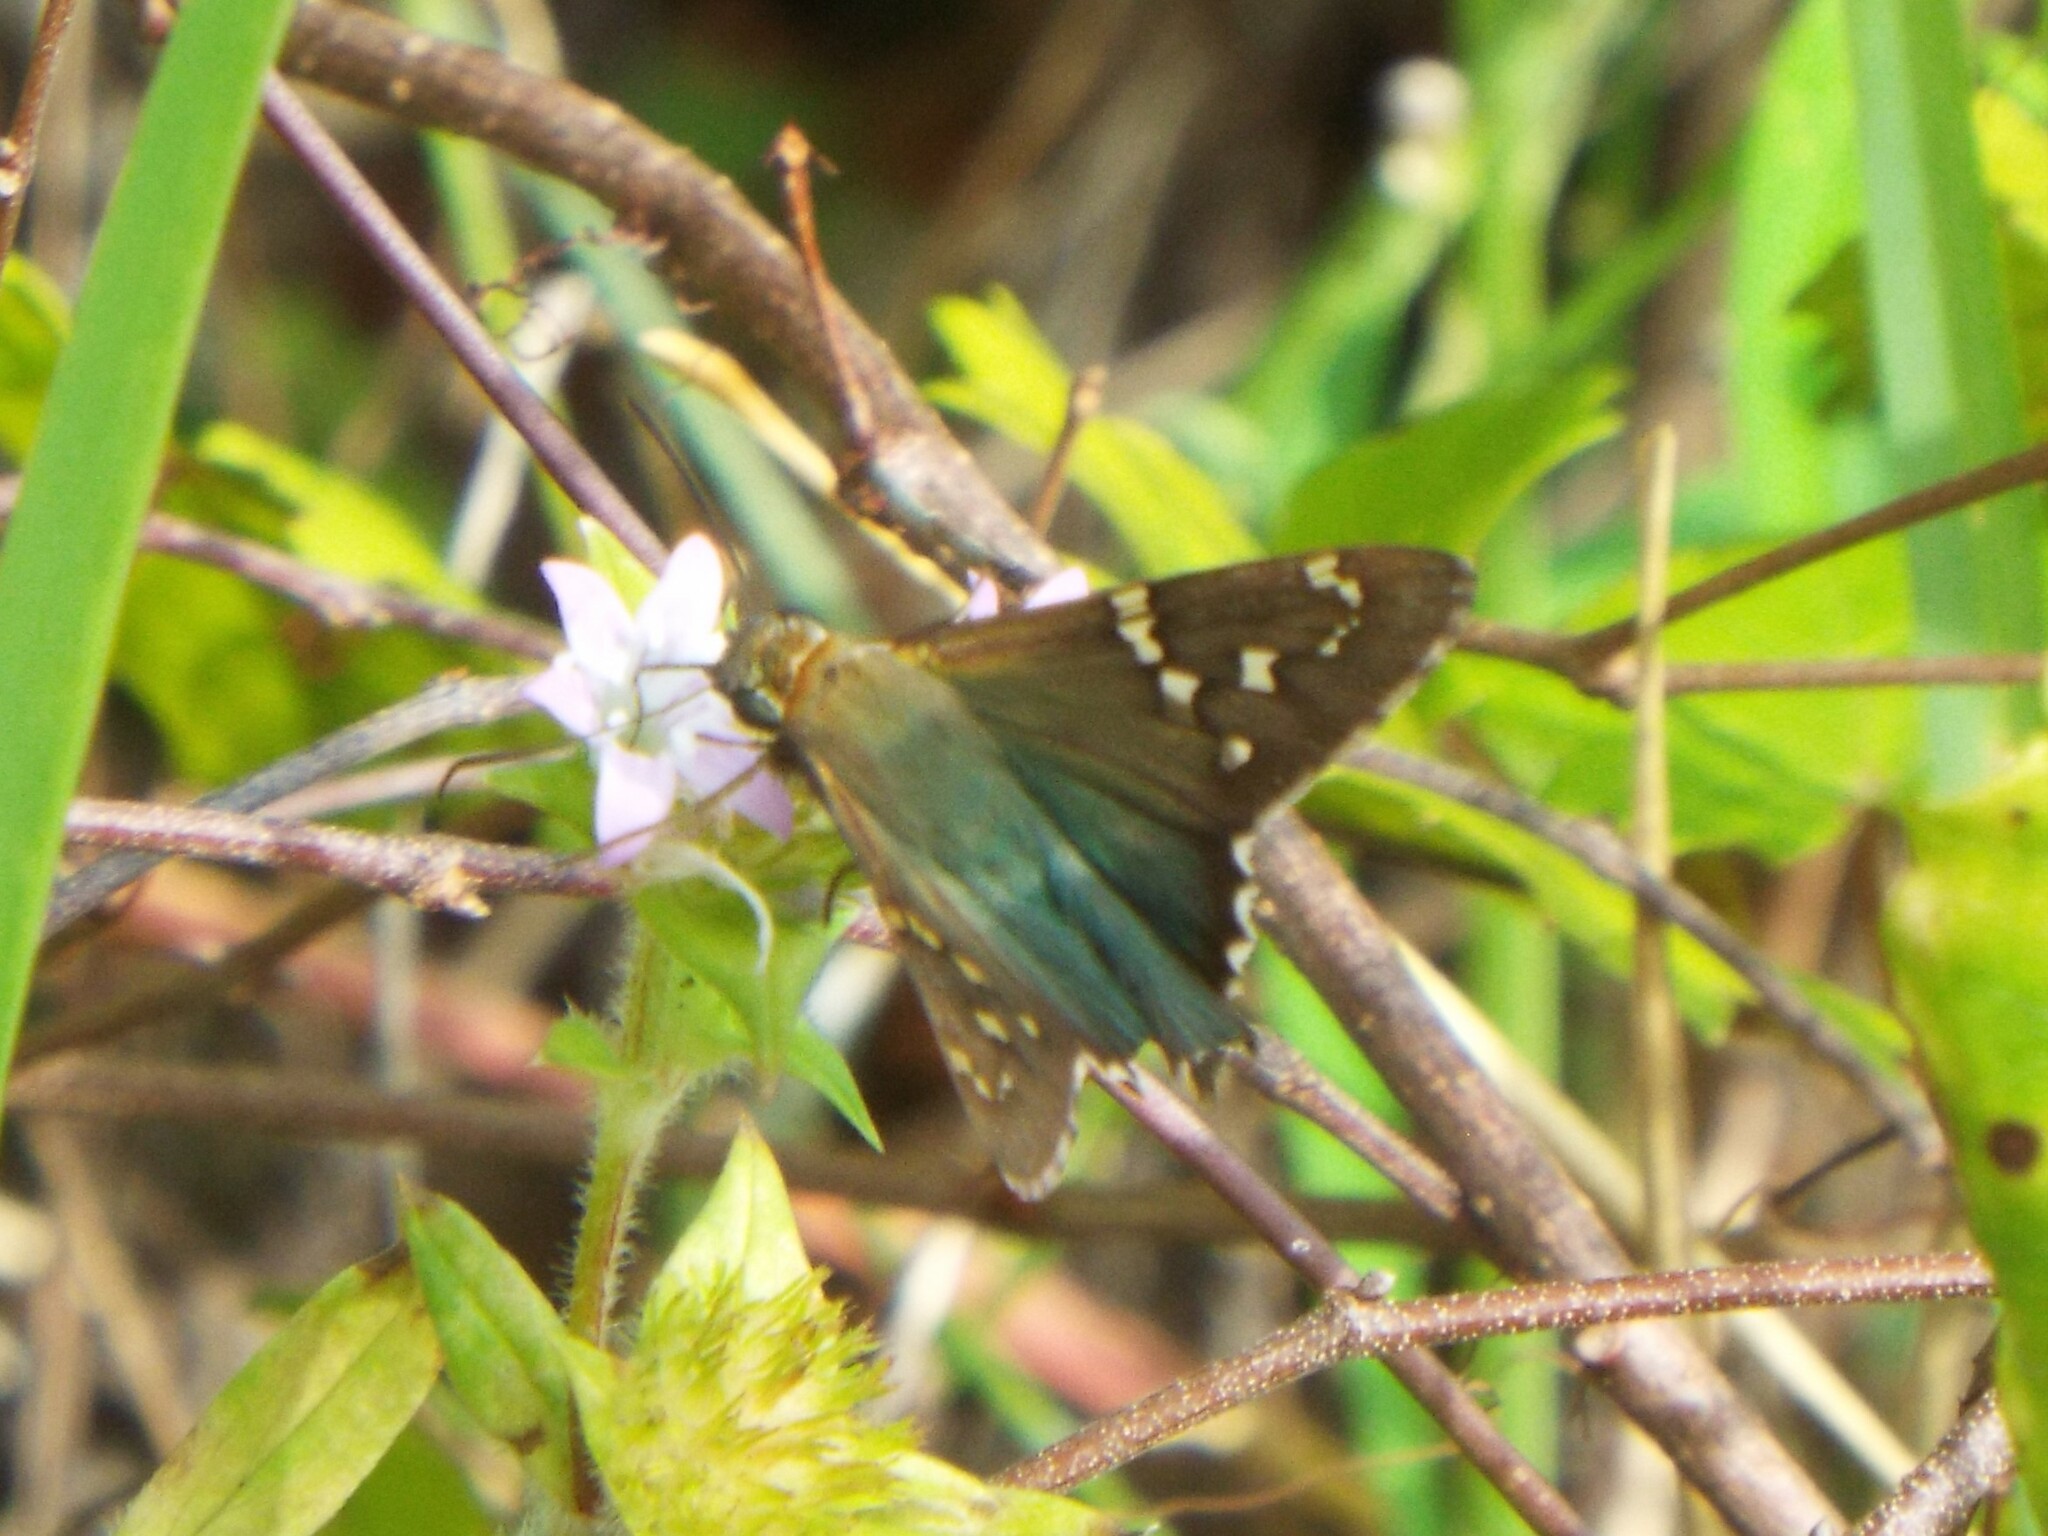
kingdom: Animalia
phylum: Arthropoda
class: Insecta
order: Lepidoptera
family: Hesperiidae
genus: Urbanus
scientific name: Urbanus proteus
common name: Long-tailed skipper
